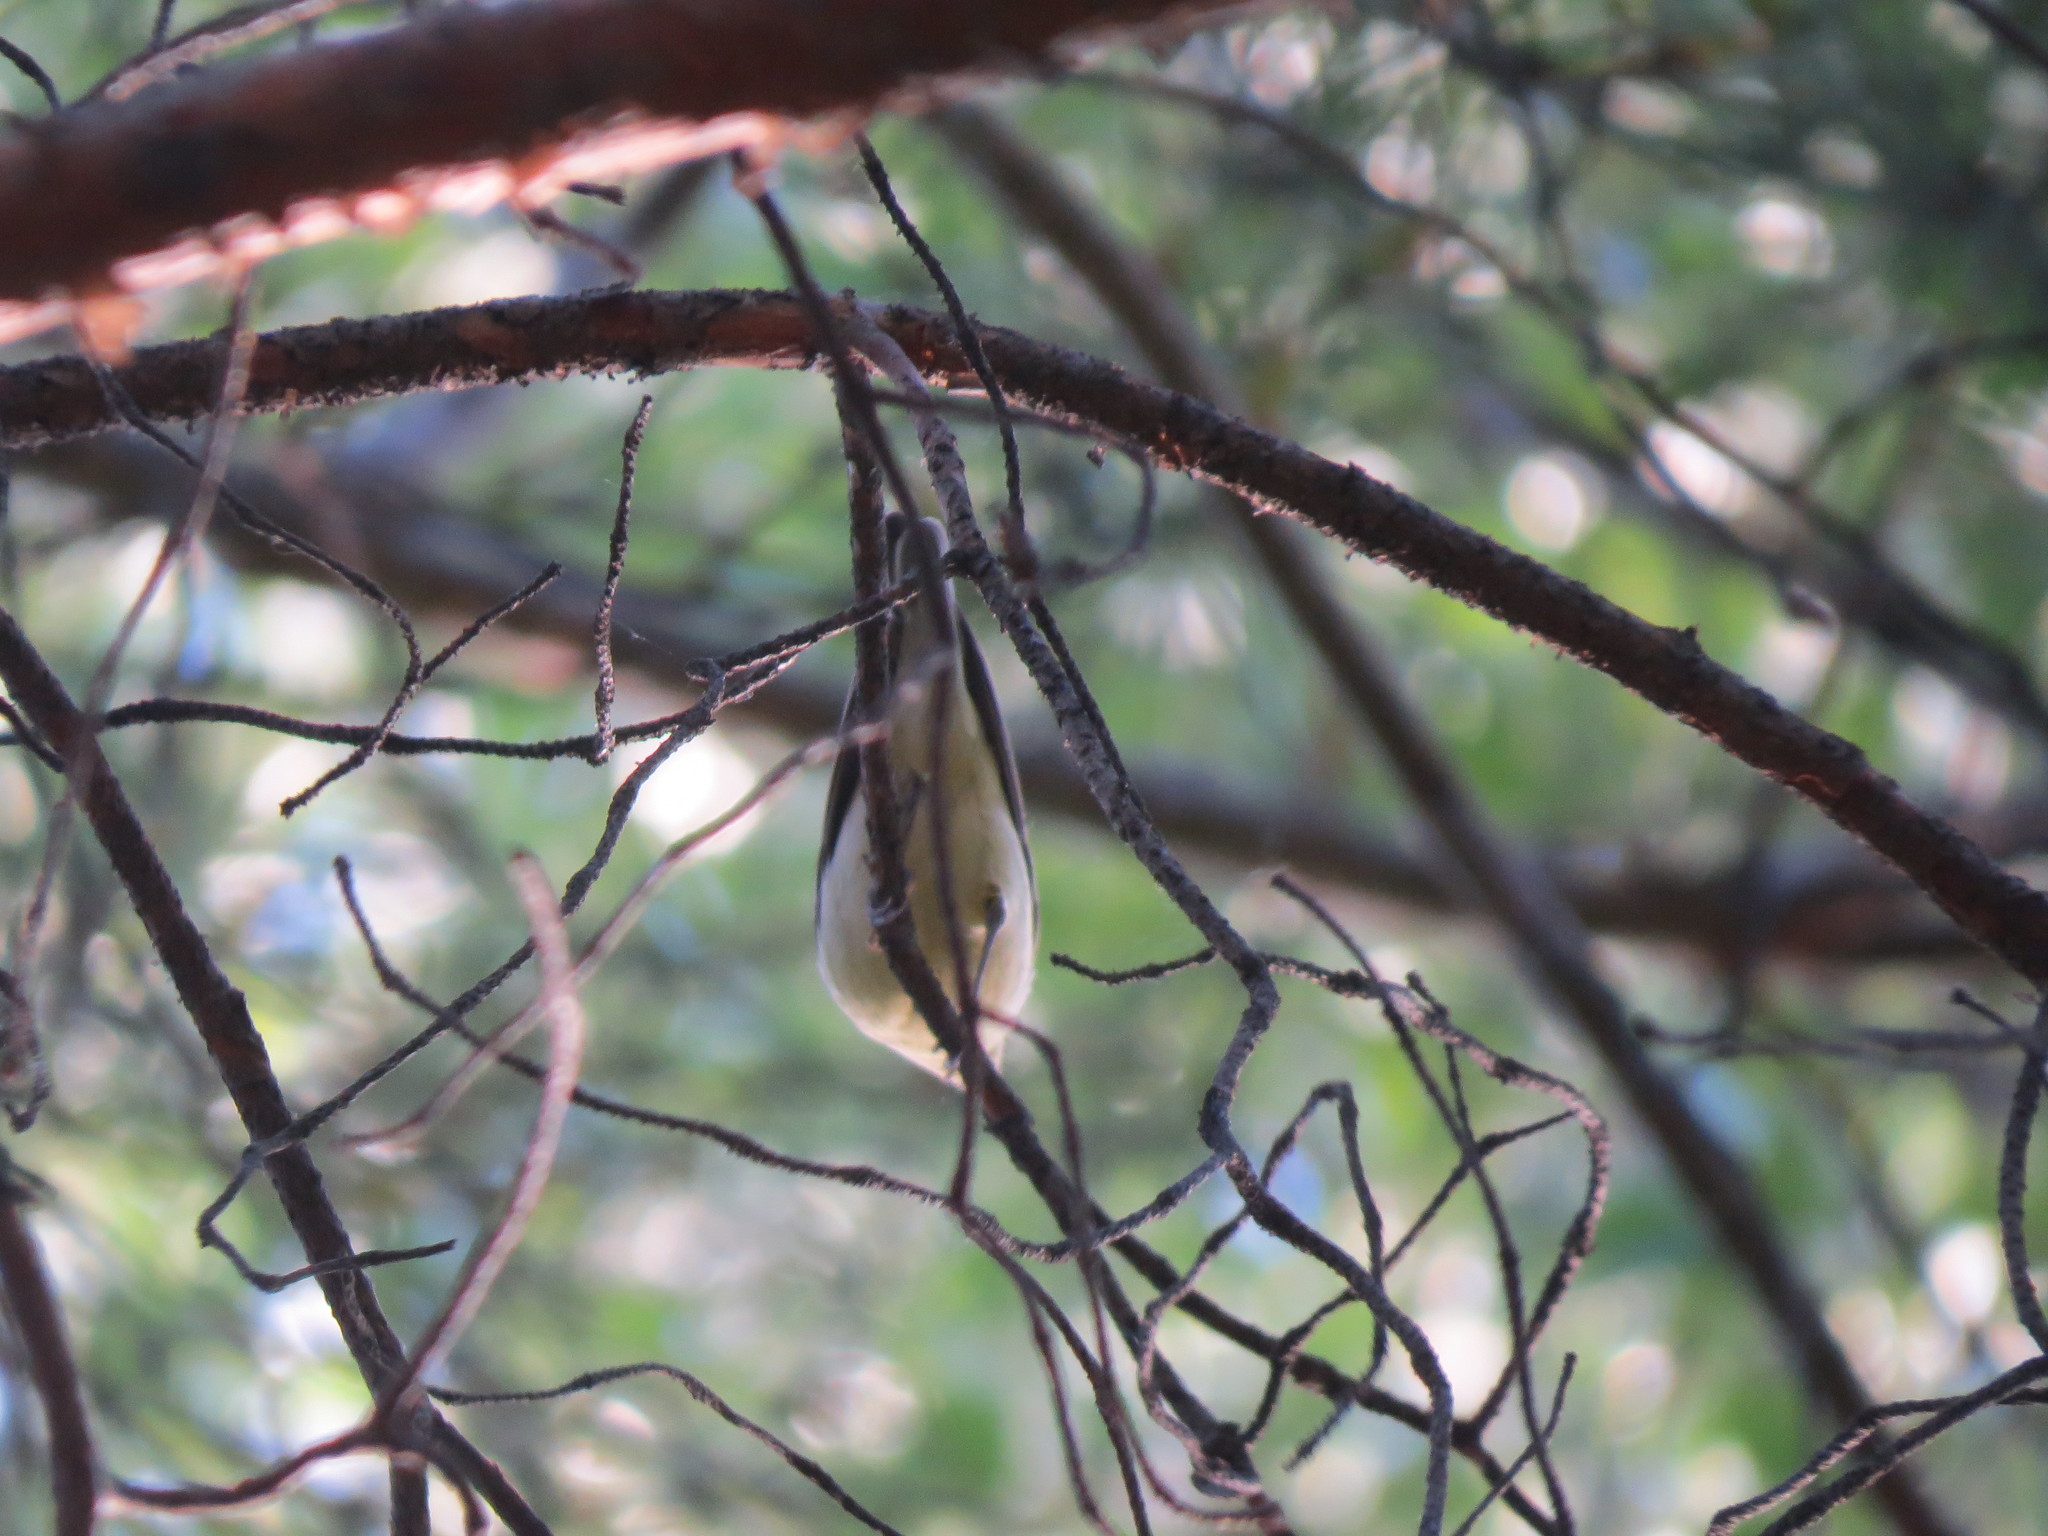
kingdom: Animalia
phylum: Chordata
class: Aves
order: Passeriformes
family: Acrocephalidae
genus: Hippolais
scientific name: Hippolais icterina
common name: Icterine warbler
